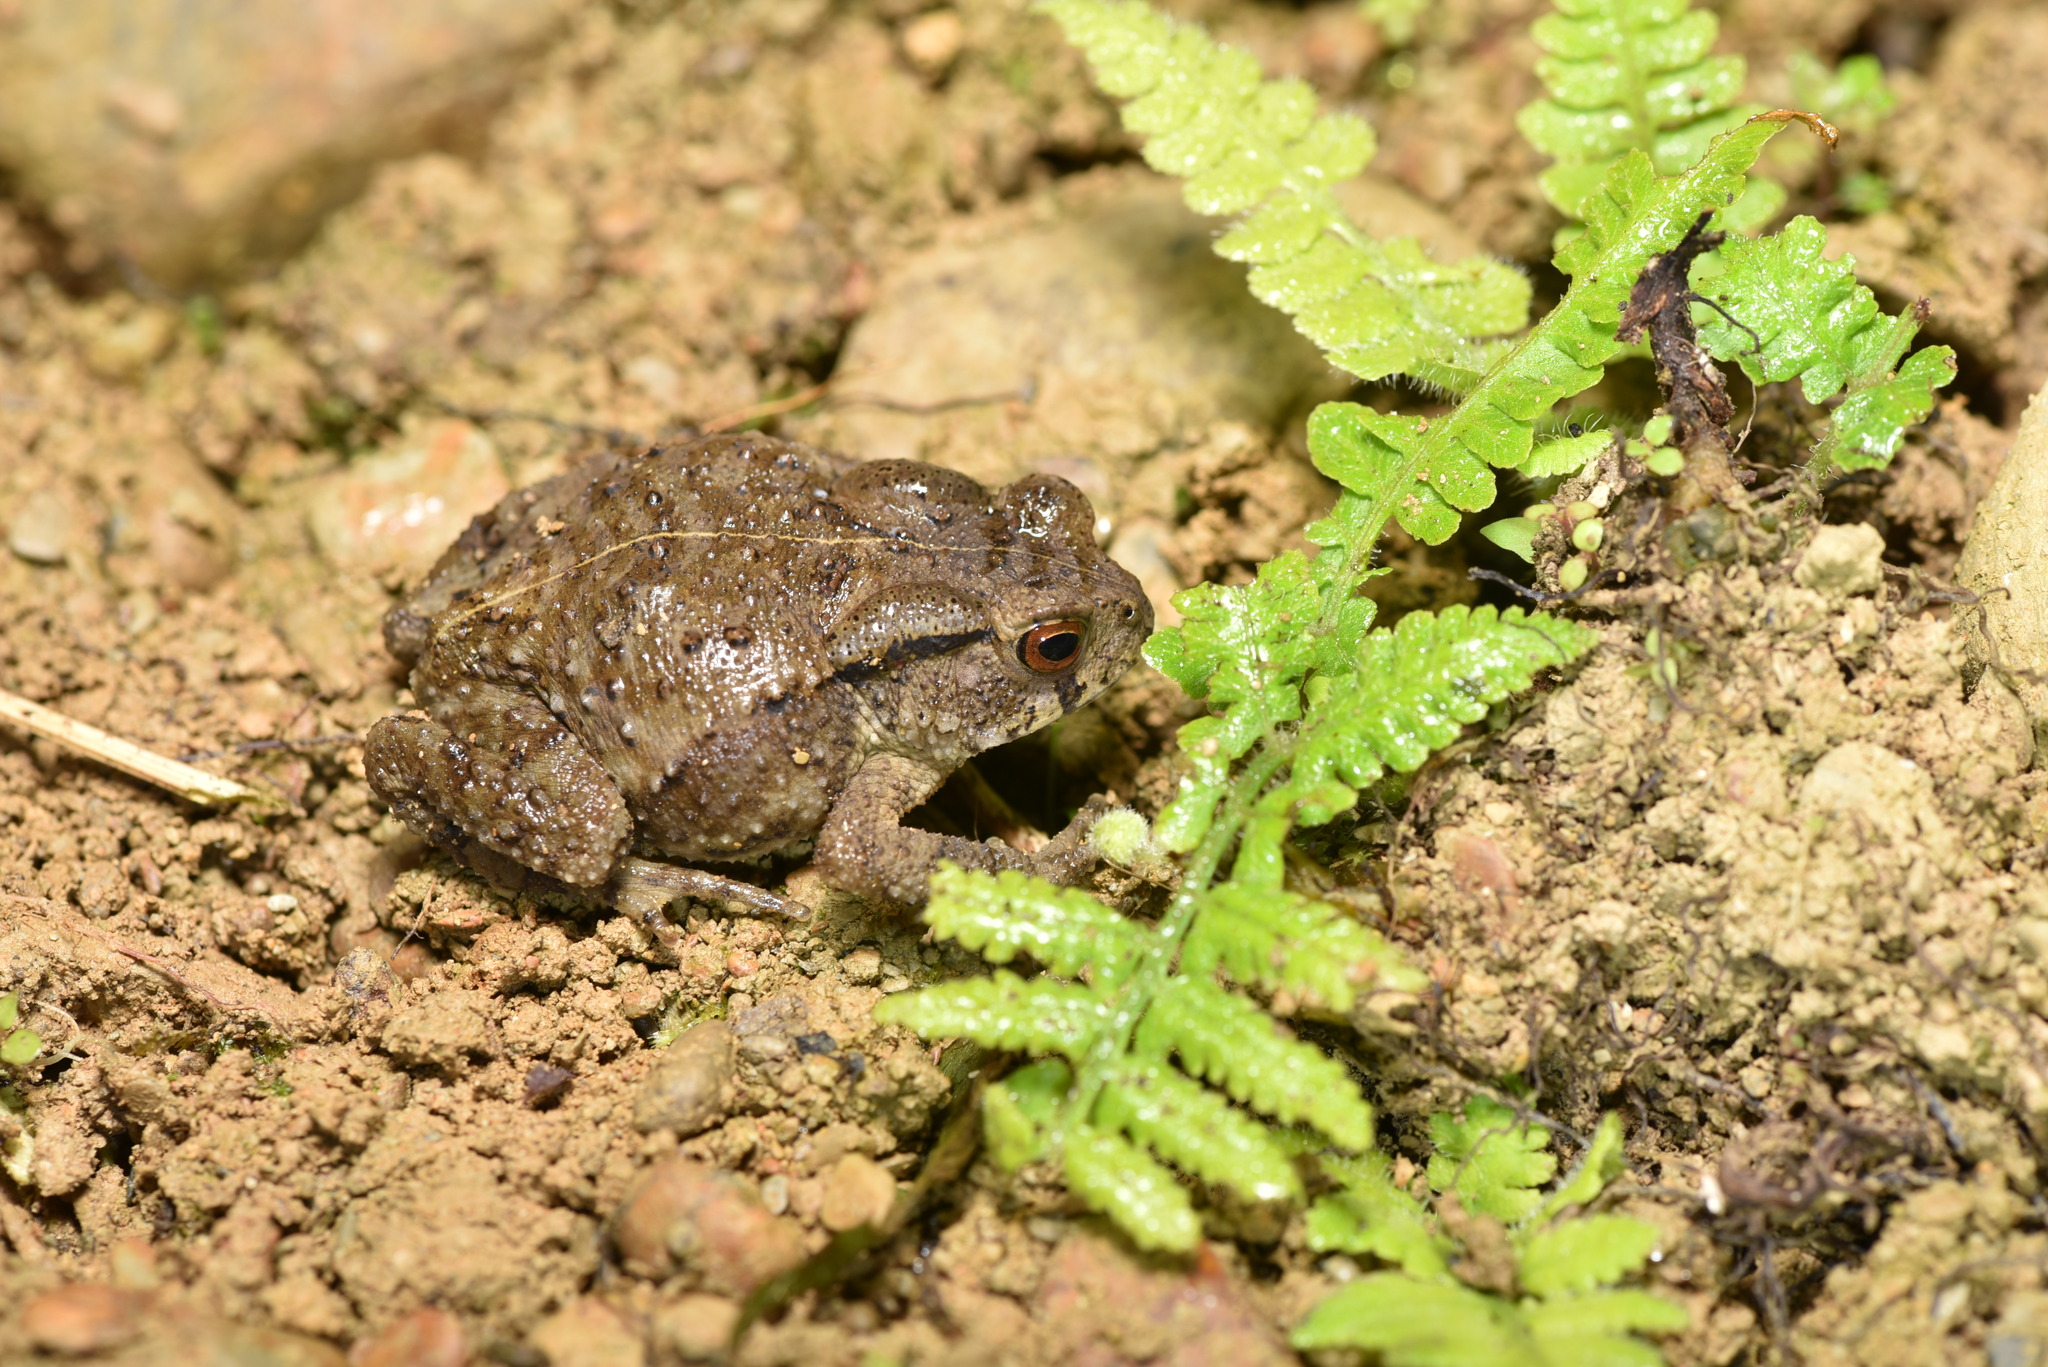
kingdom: Animalia
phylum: Chordata
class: Amphibia
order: Anura
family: Bufonidae
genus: Bufo
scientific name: Bufo bankorensis
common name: Bankor toad
